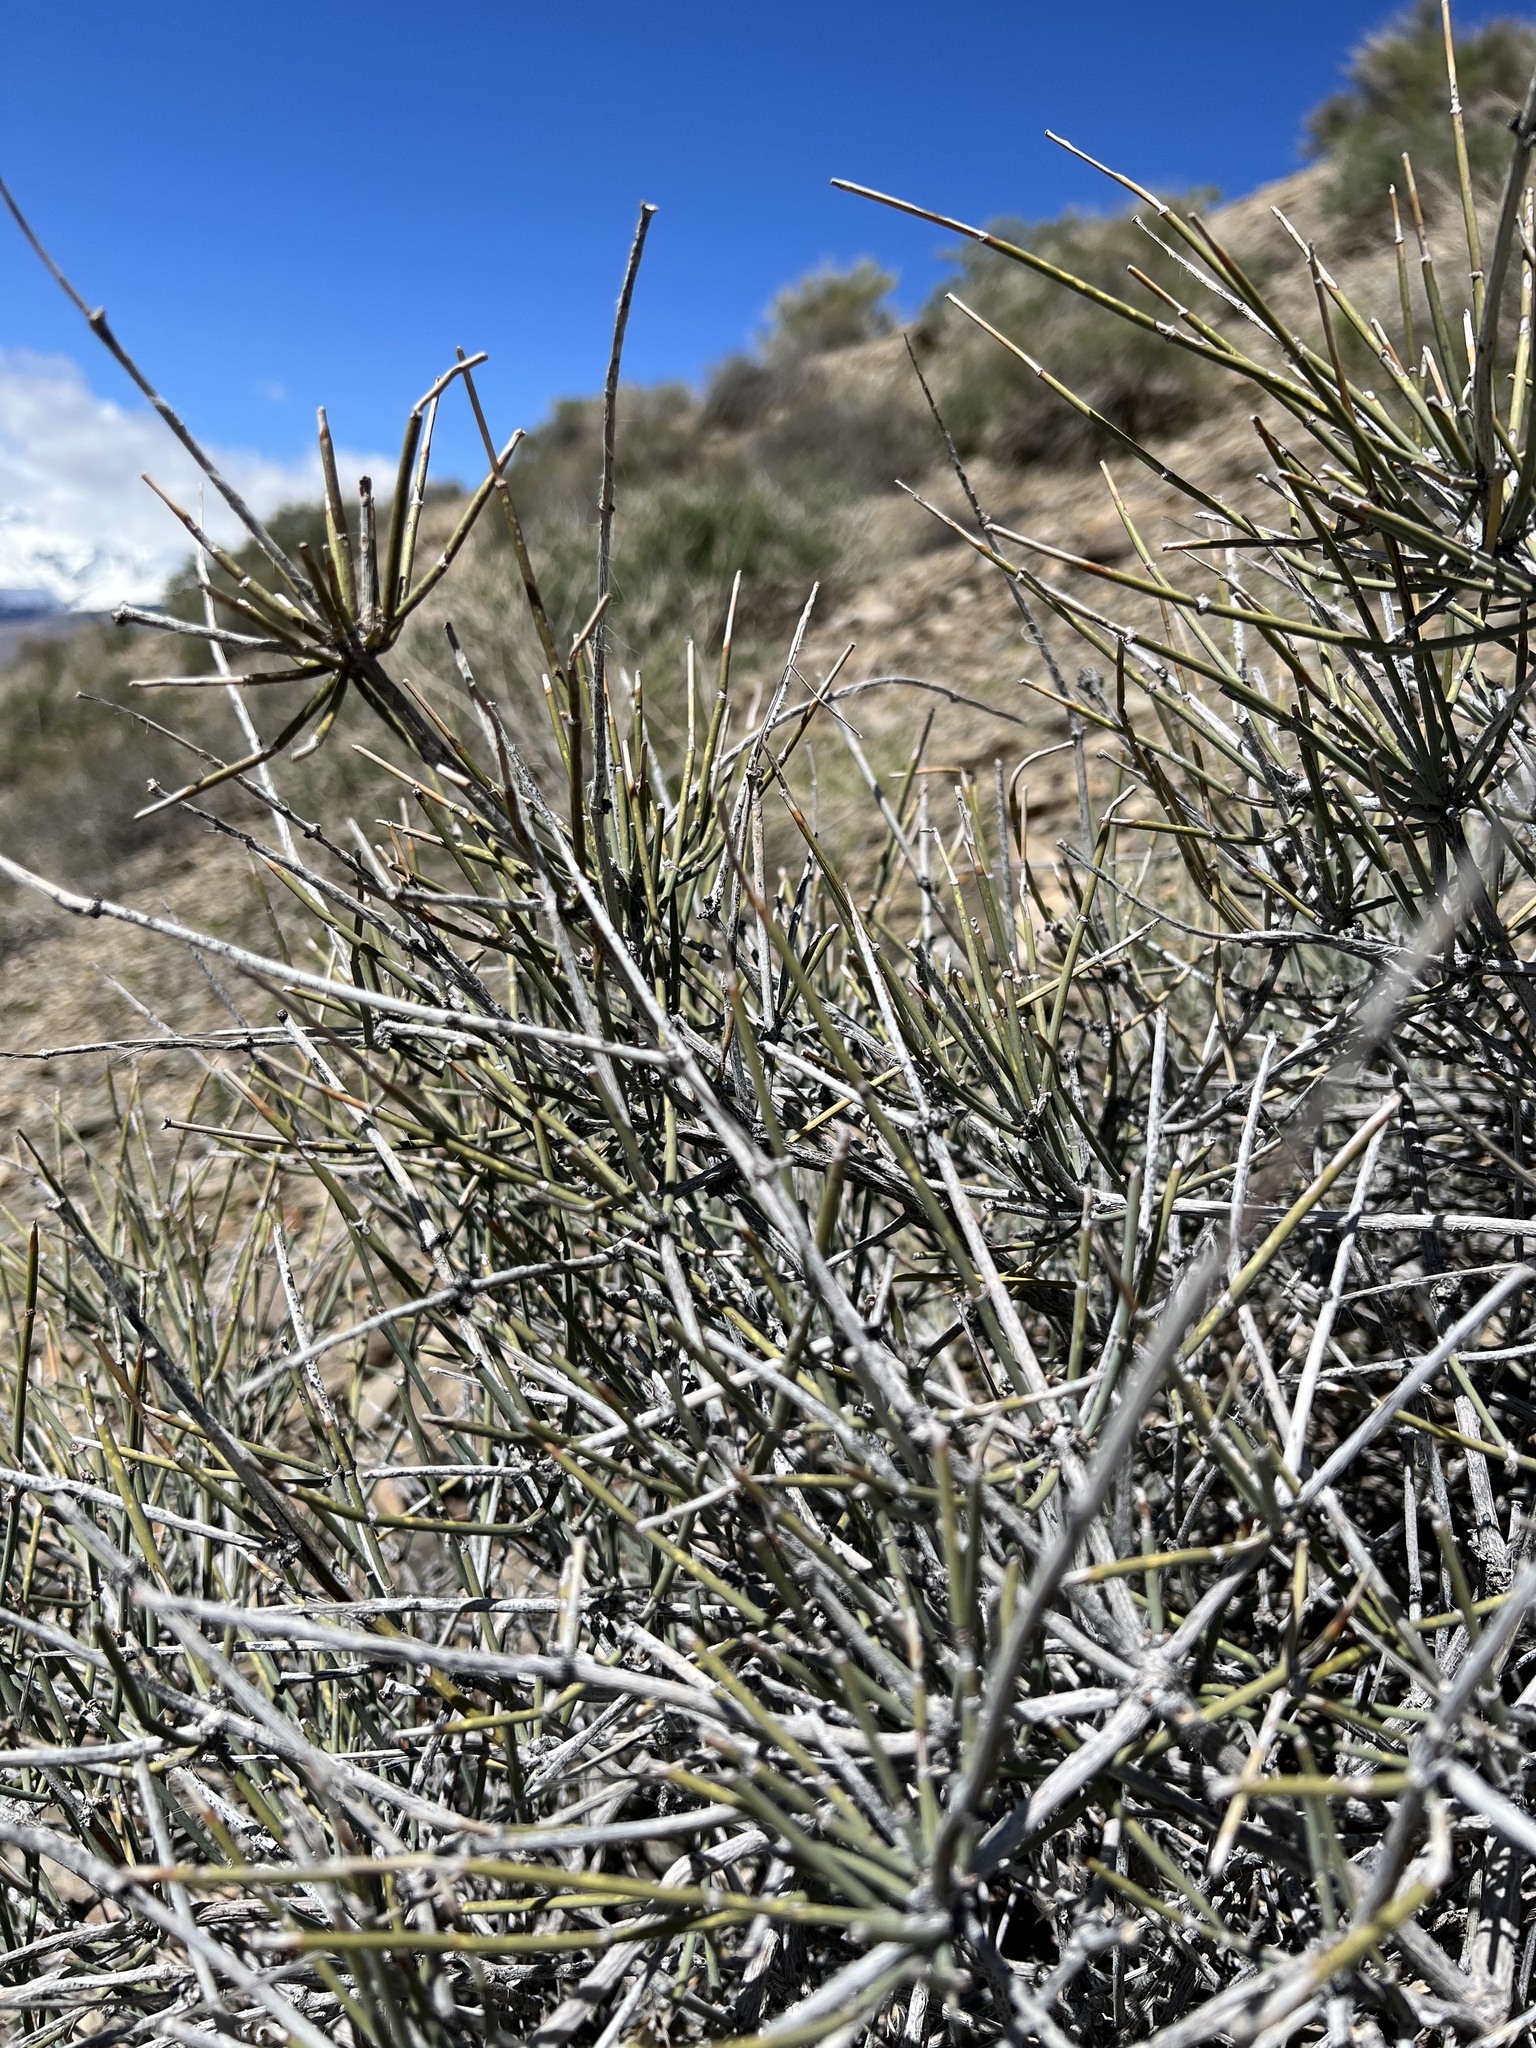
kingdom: Plantae
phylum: Tracheophyta
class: Gnetopsida
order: Ephedrales
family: Ephedraceae
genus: Ephedra
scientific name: Ephedra nevadensis
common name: Gray ephedra
